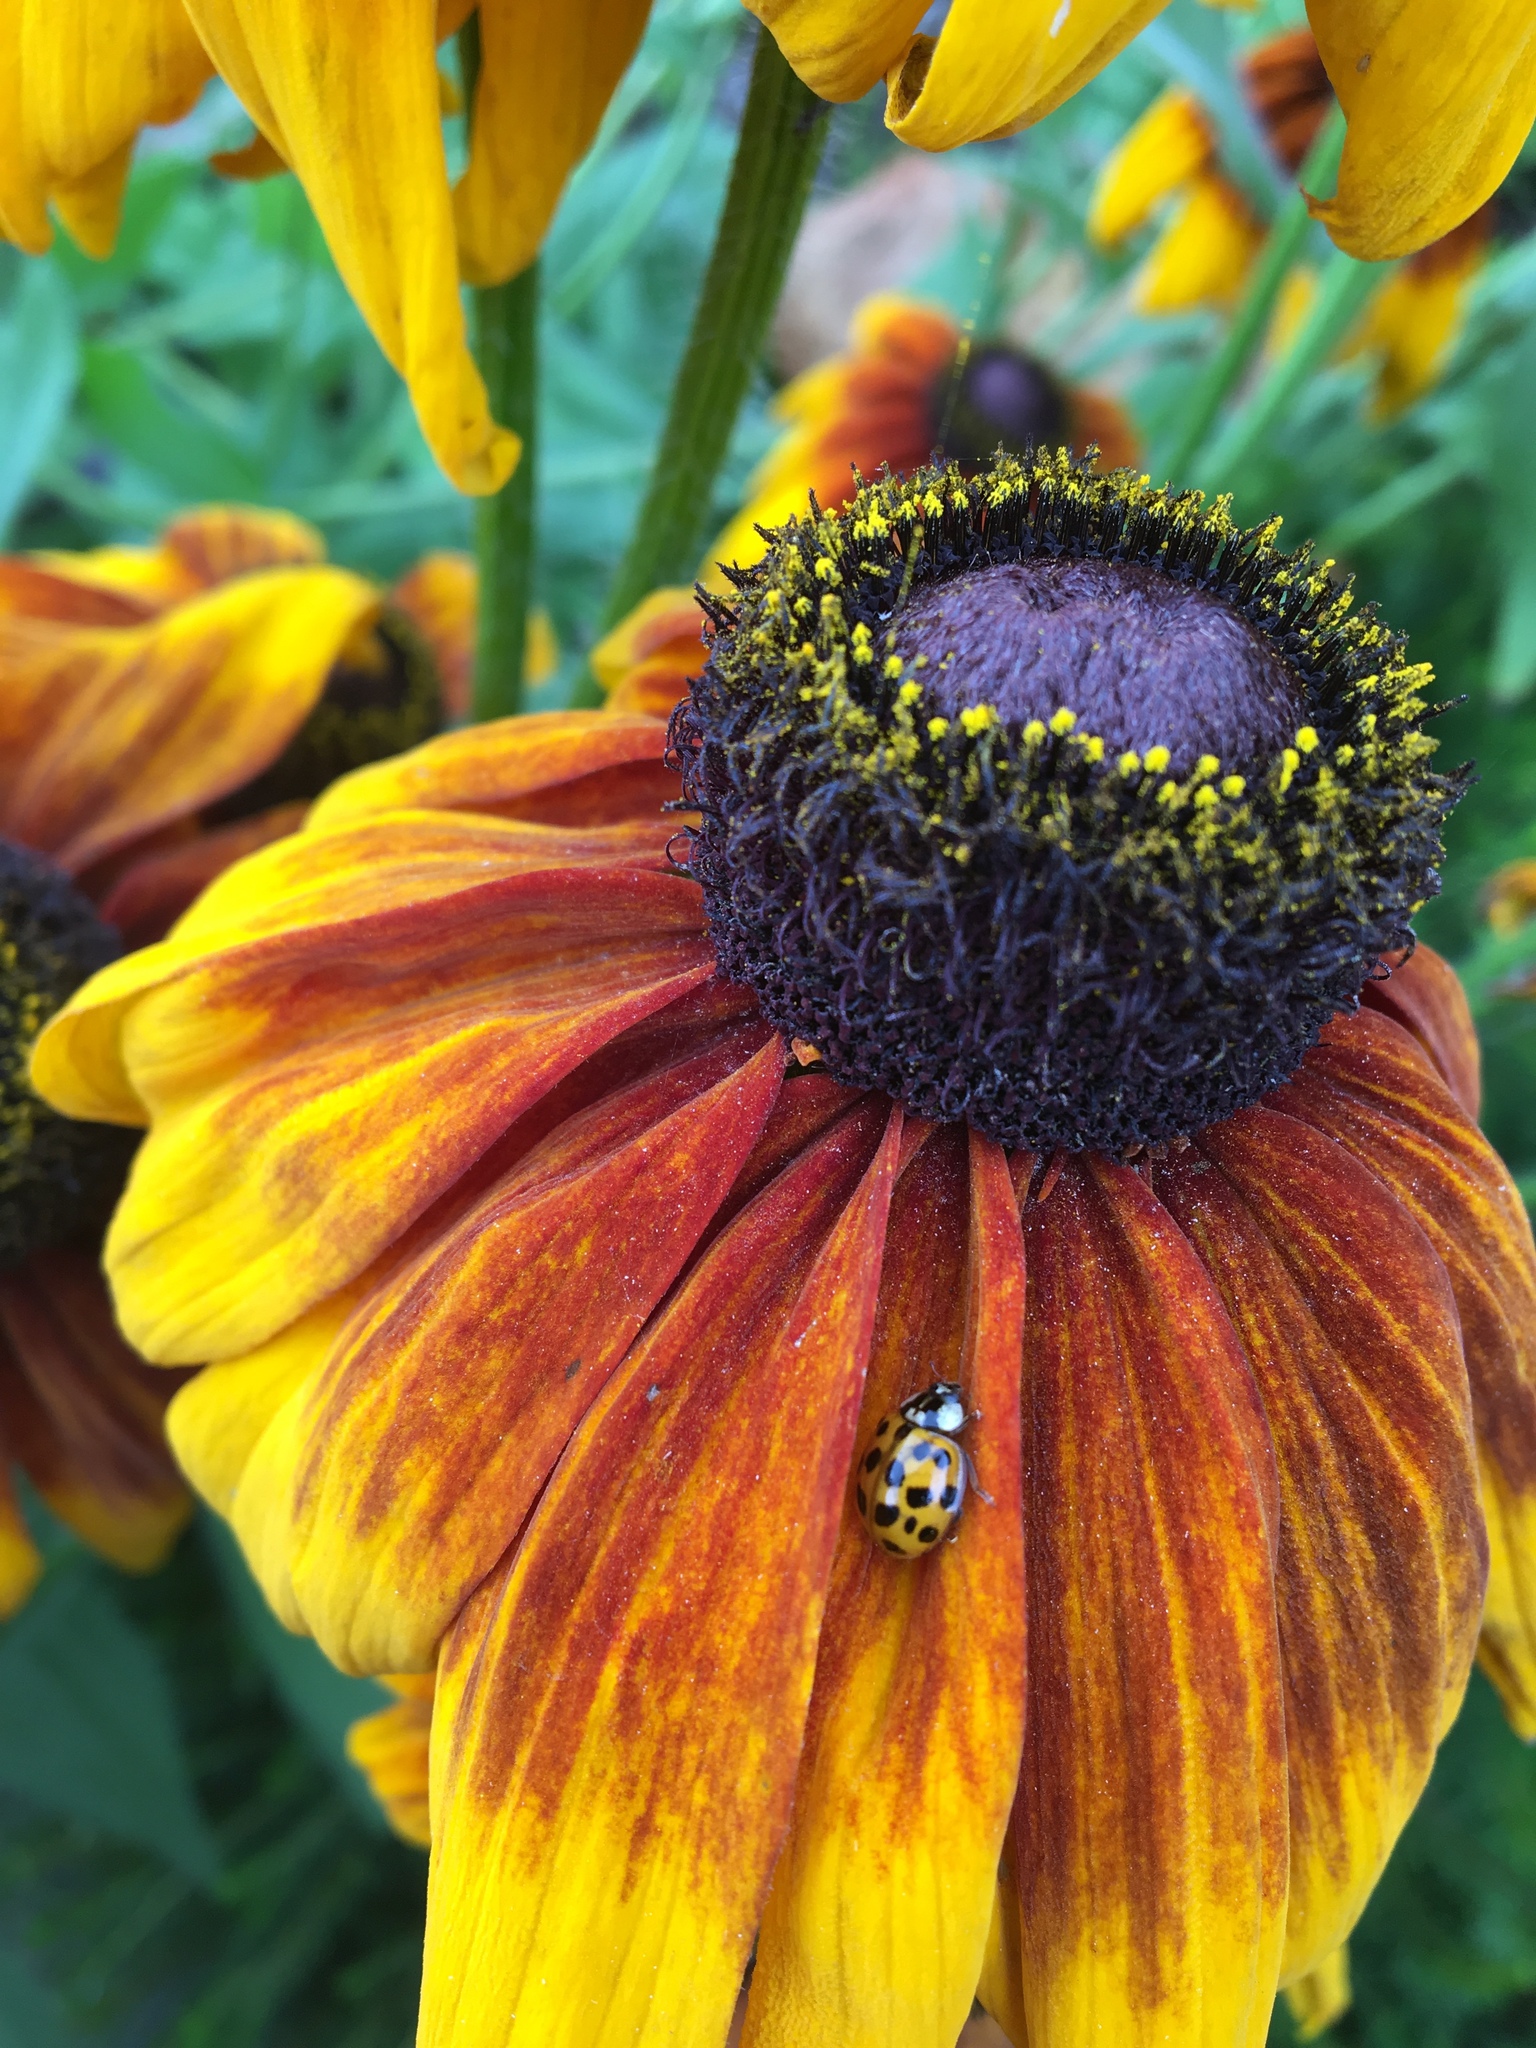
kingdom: Animalia
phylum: Arthropoda
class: Insecta
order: Coleoptera
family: Coccinellidae
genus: Harmonia
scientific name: Harmonia axyridis
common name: Harlequin ladybird
